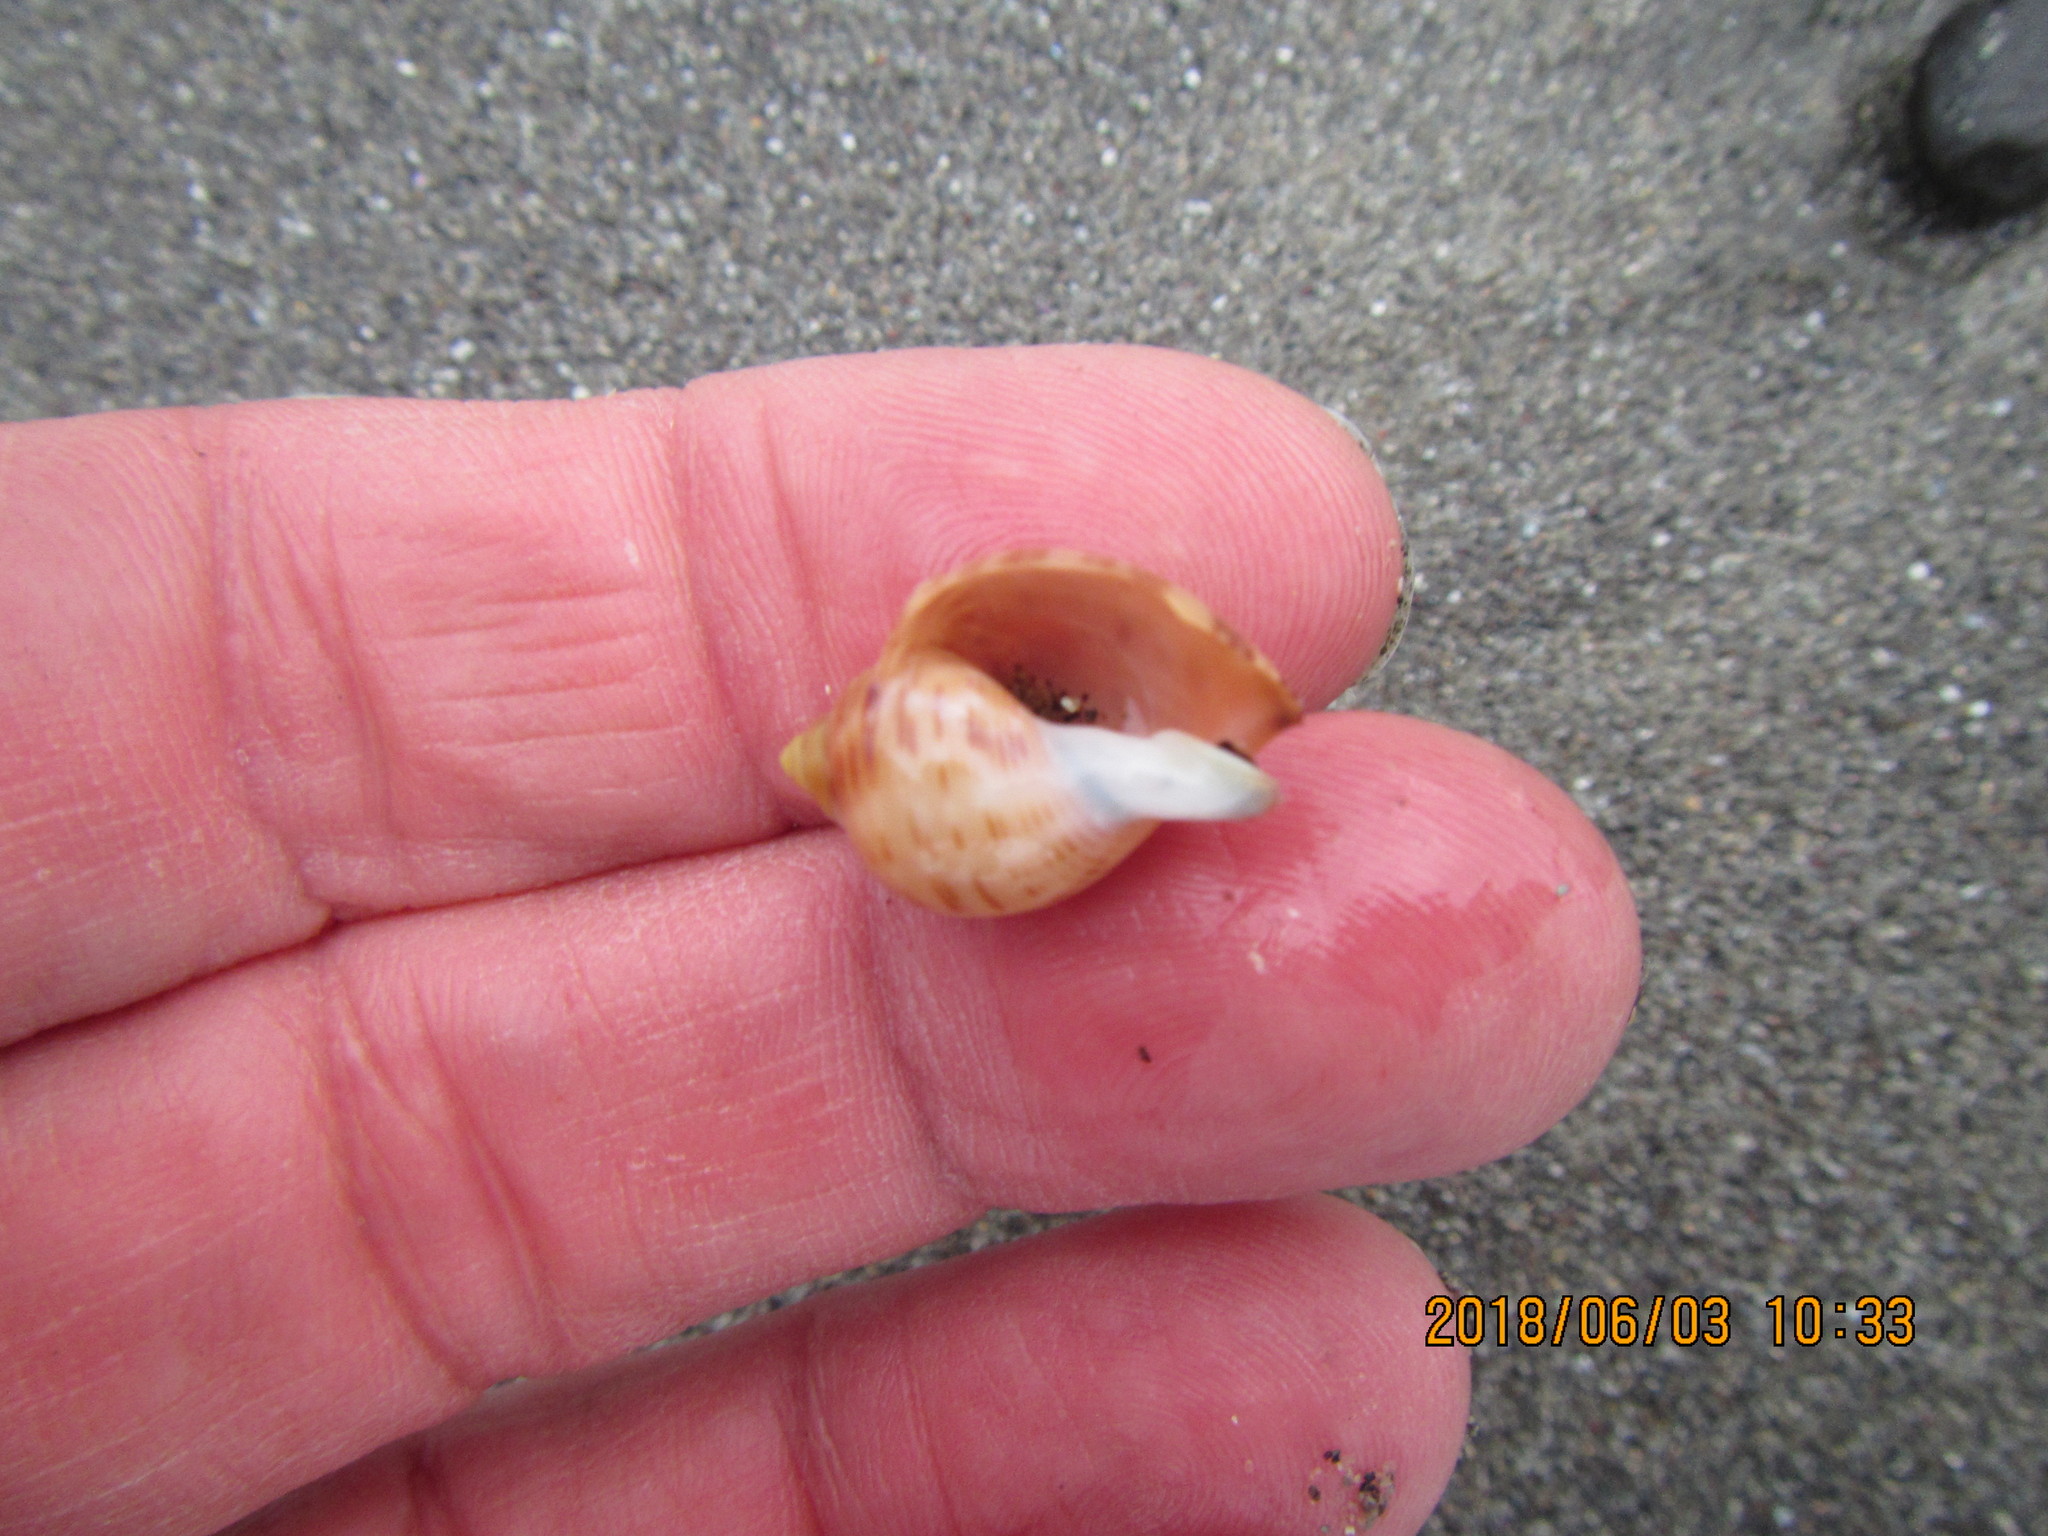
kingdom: Animalia
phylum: Mollusca
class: Gastropoda
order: Littorinimorpha
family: Cassidae
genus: Semicassis
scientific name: Semicassis pyrum
